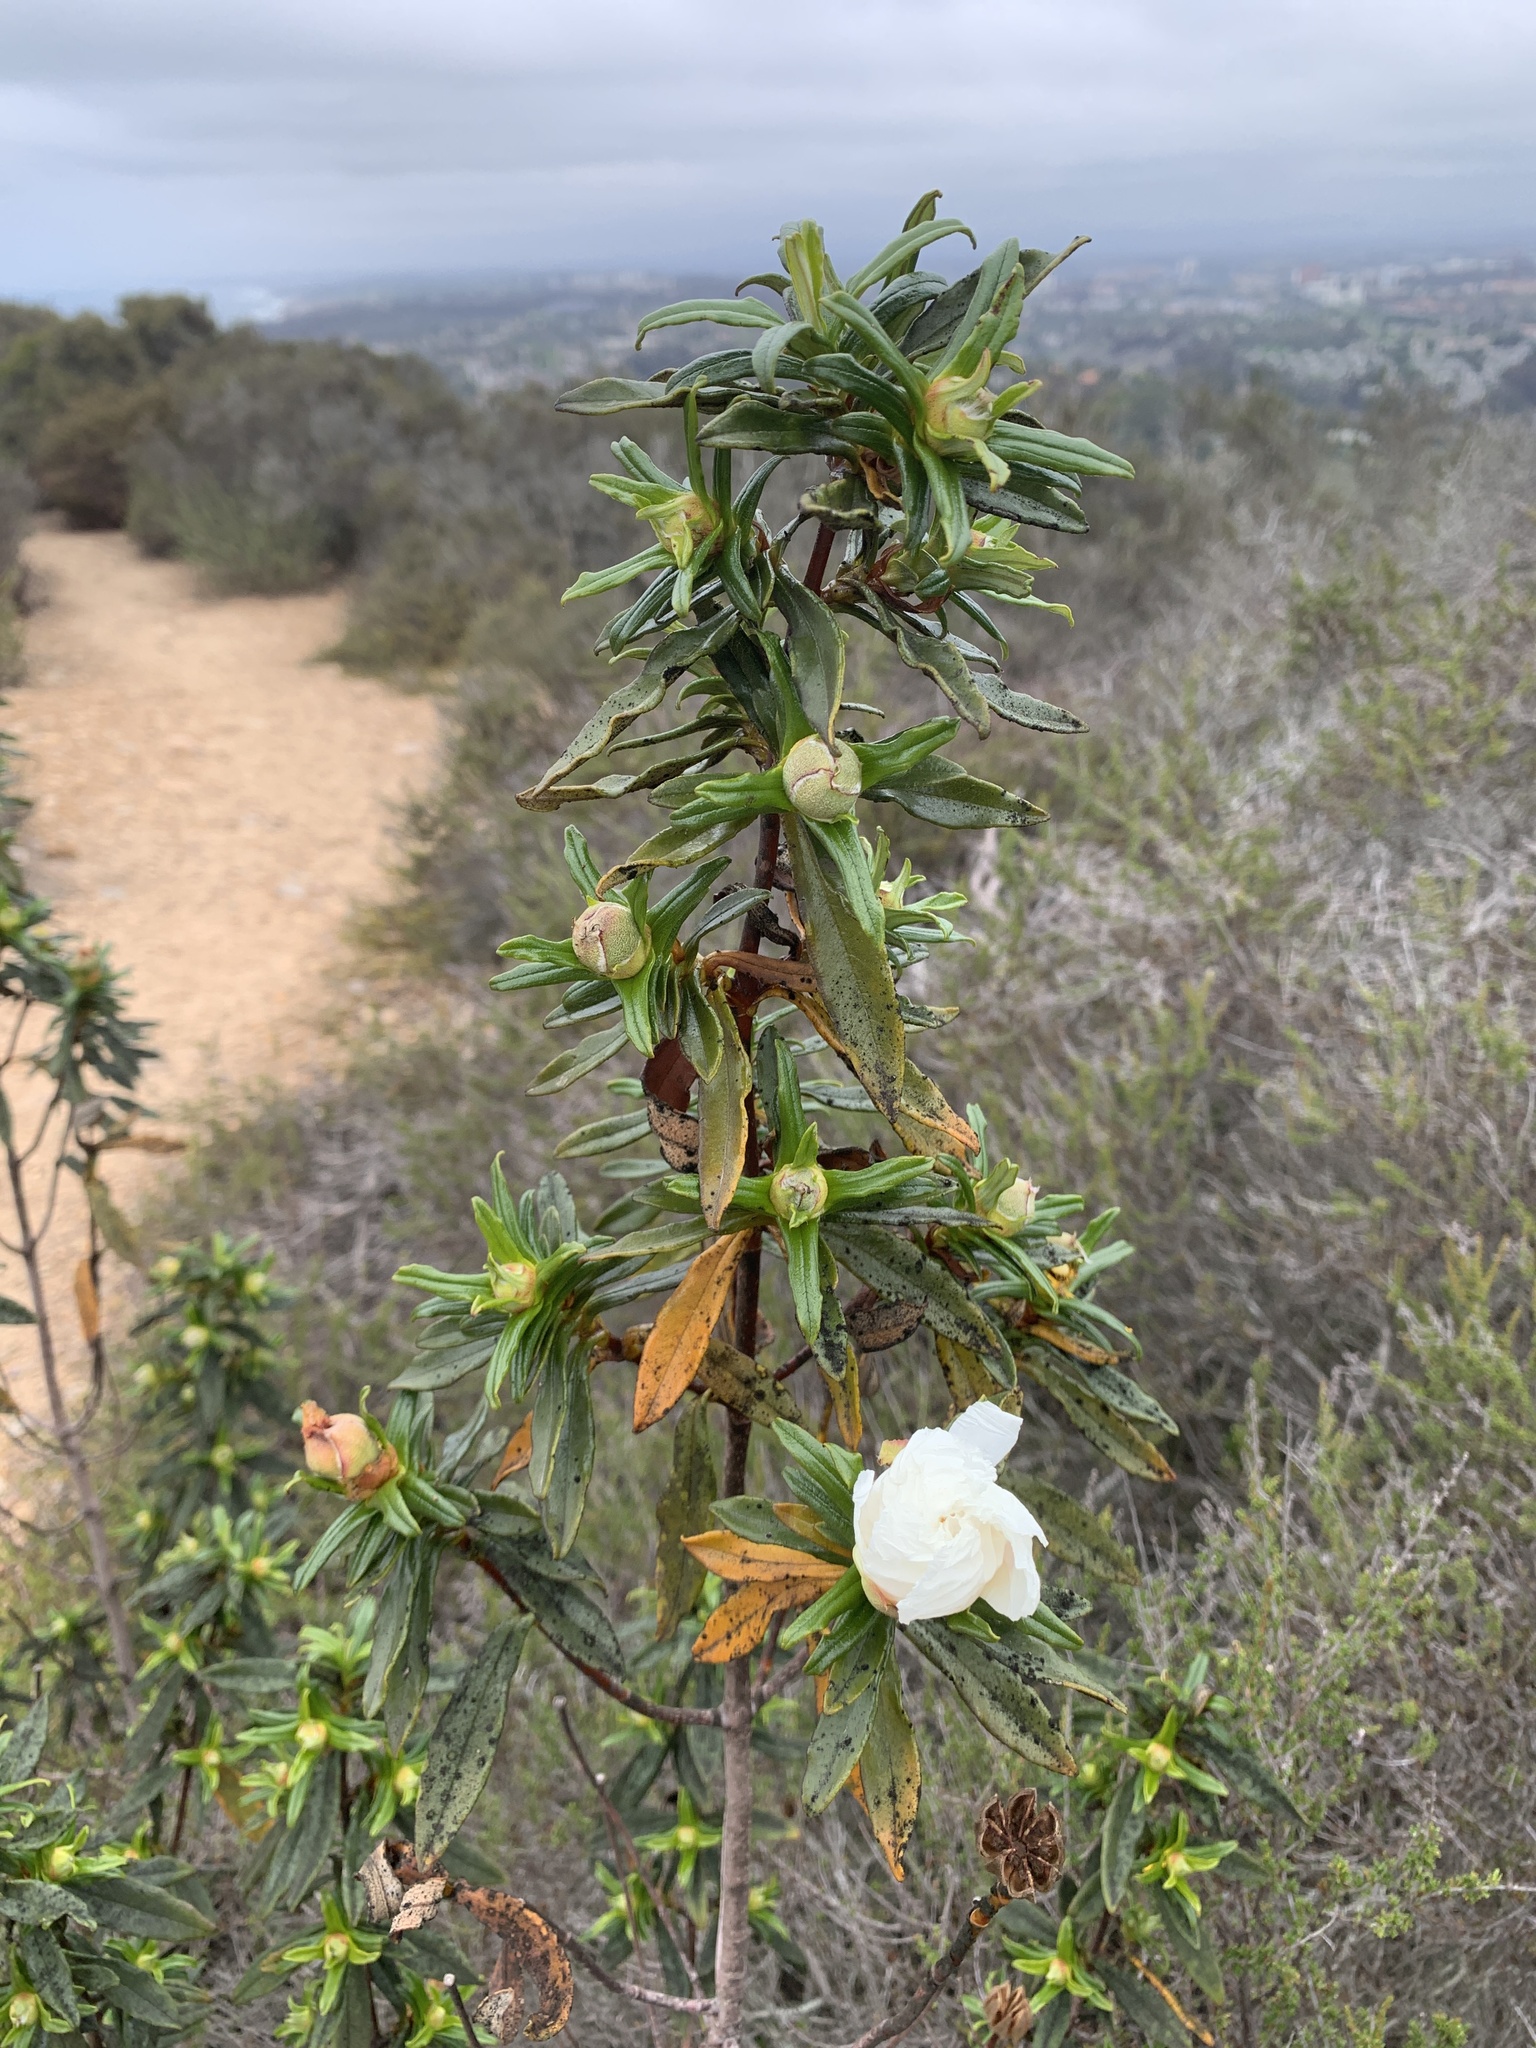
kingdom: Plantae
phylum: Tracheophyta
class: Magnoliopsida
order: Malvales
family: Cistaceae
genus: Cistus
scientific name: Cistus ladanifer
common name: Common gum cistus
